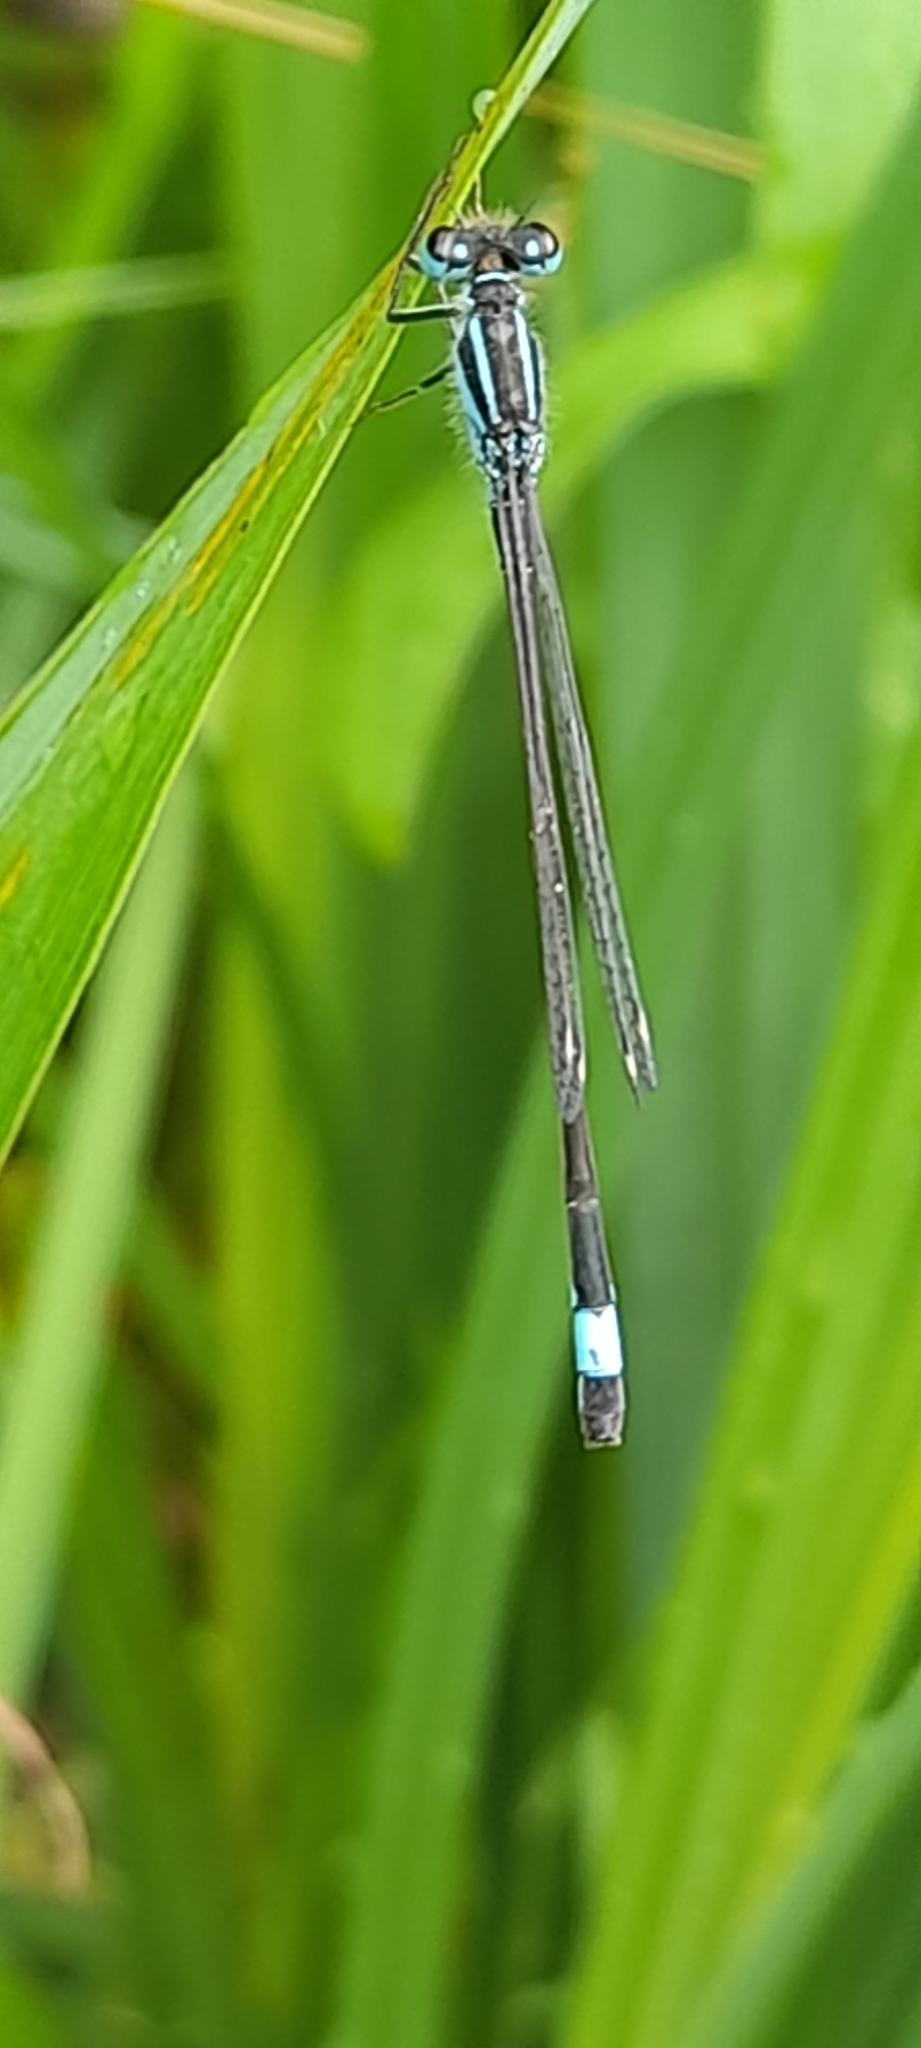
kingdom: Animalia
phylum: Arthropoda
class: Insecta
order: Odonata
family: Coenagrionidae
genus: Ischnura
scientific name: Ischnura elegans
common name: Blue-tailed damselfly
